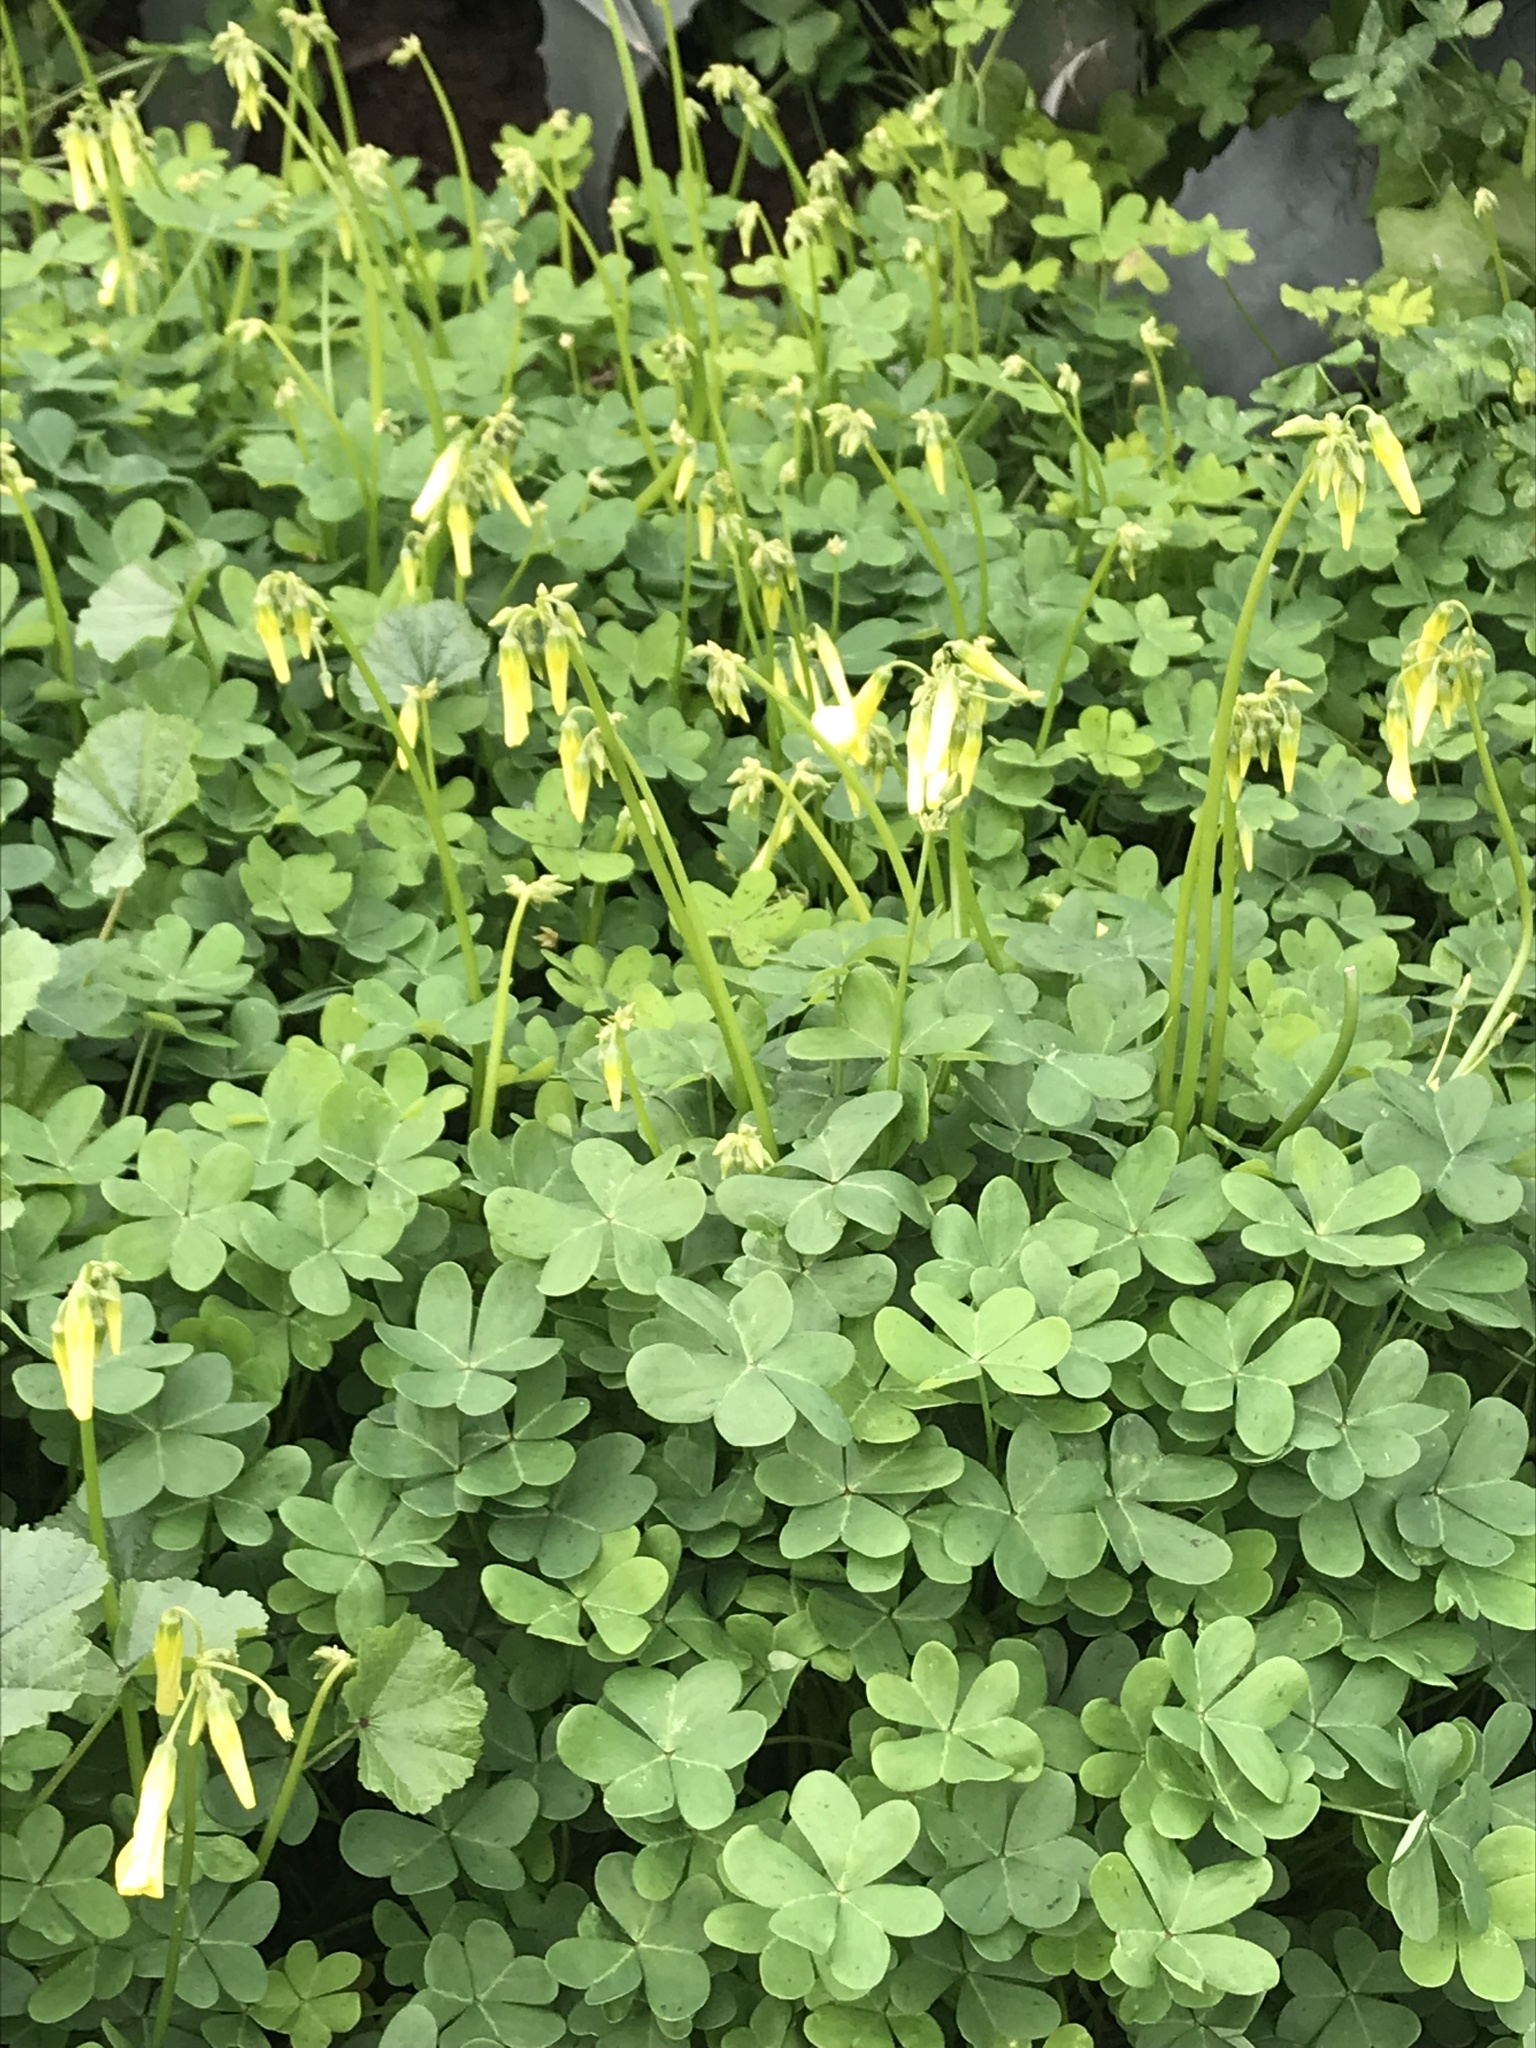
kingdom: Plantae
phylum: Tracheophyta
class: Magnoliopsida
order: Oxalidales
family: Oxalidaceae
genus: Oxalis
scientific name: Oxalis pes-caprae
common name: Bermuda-buttercup
